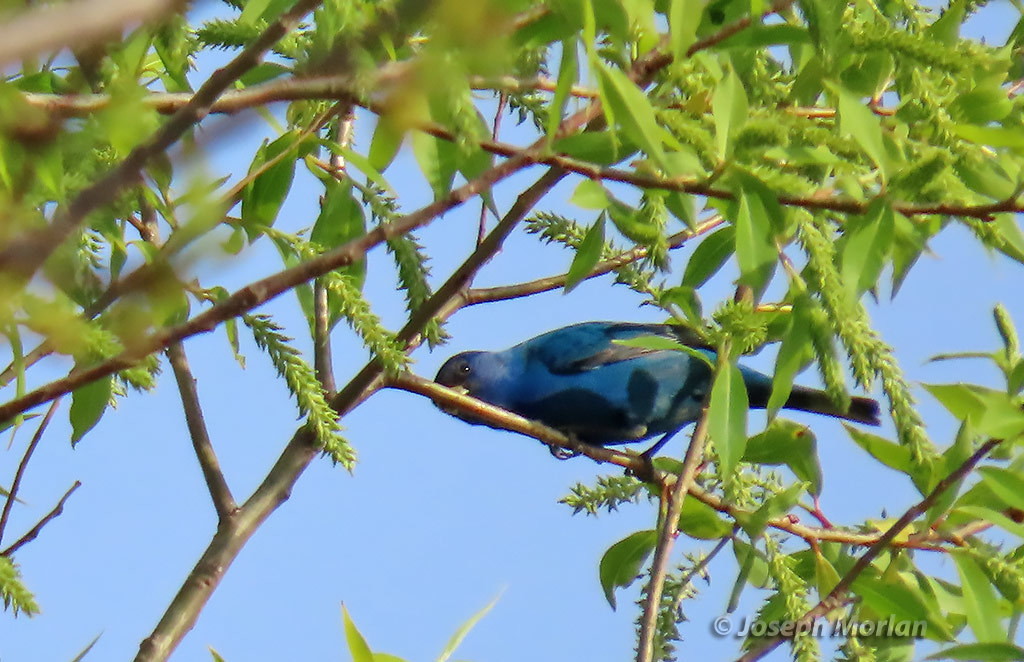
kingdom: Animalia
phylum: Chordata
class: Aves
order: Passeriformes
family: Cardinalidae
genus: Passerina
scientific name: Passerina cyanea
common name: Indigo bunting
